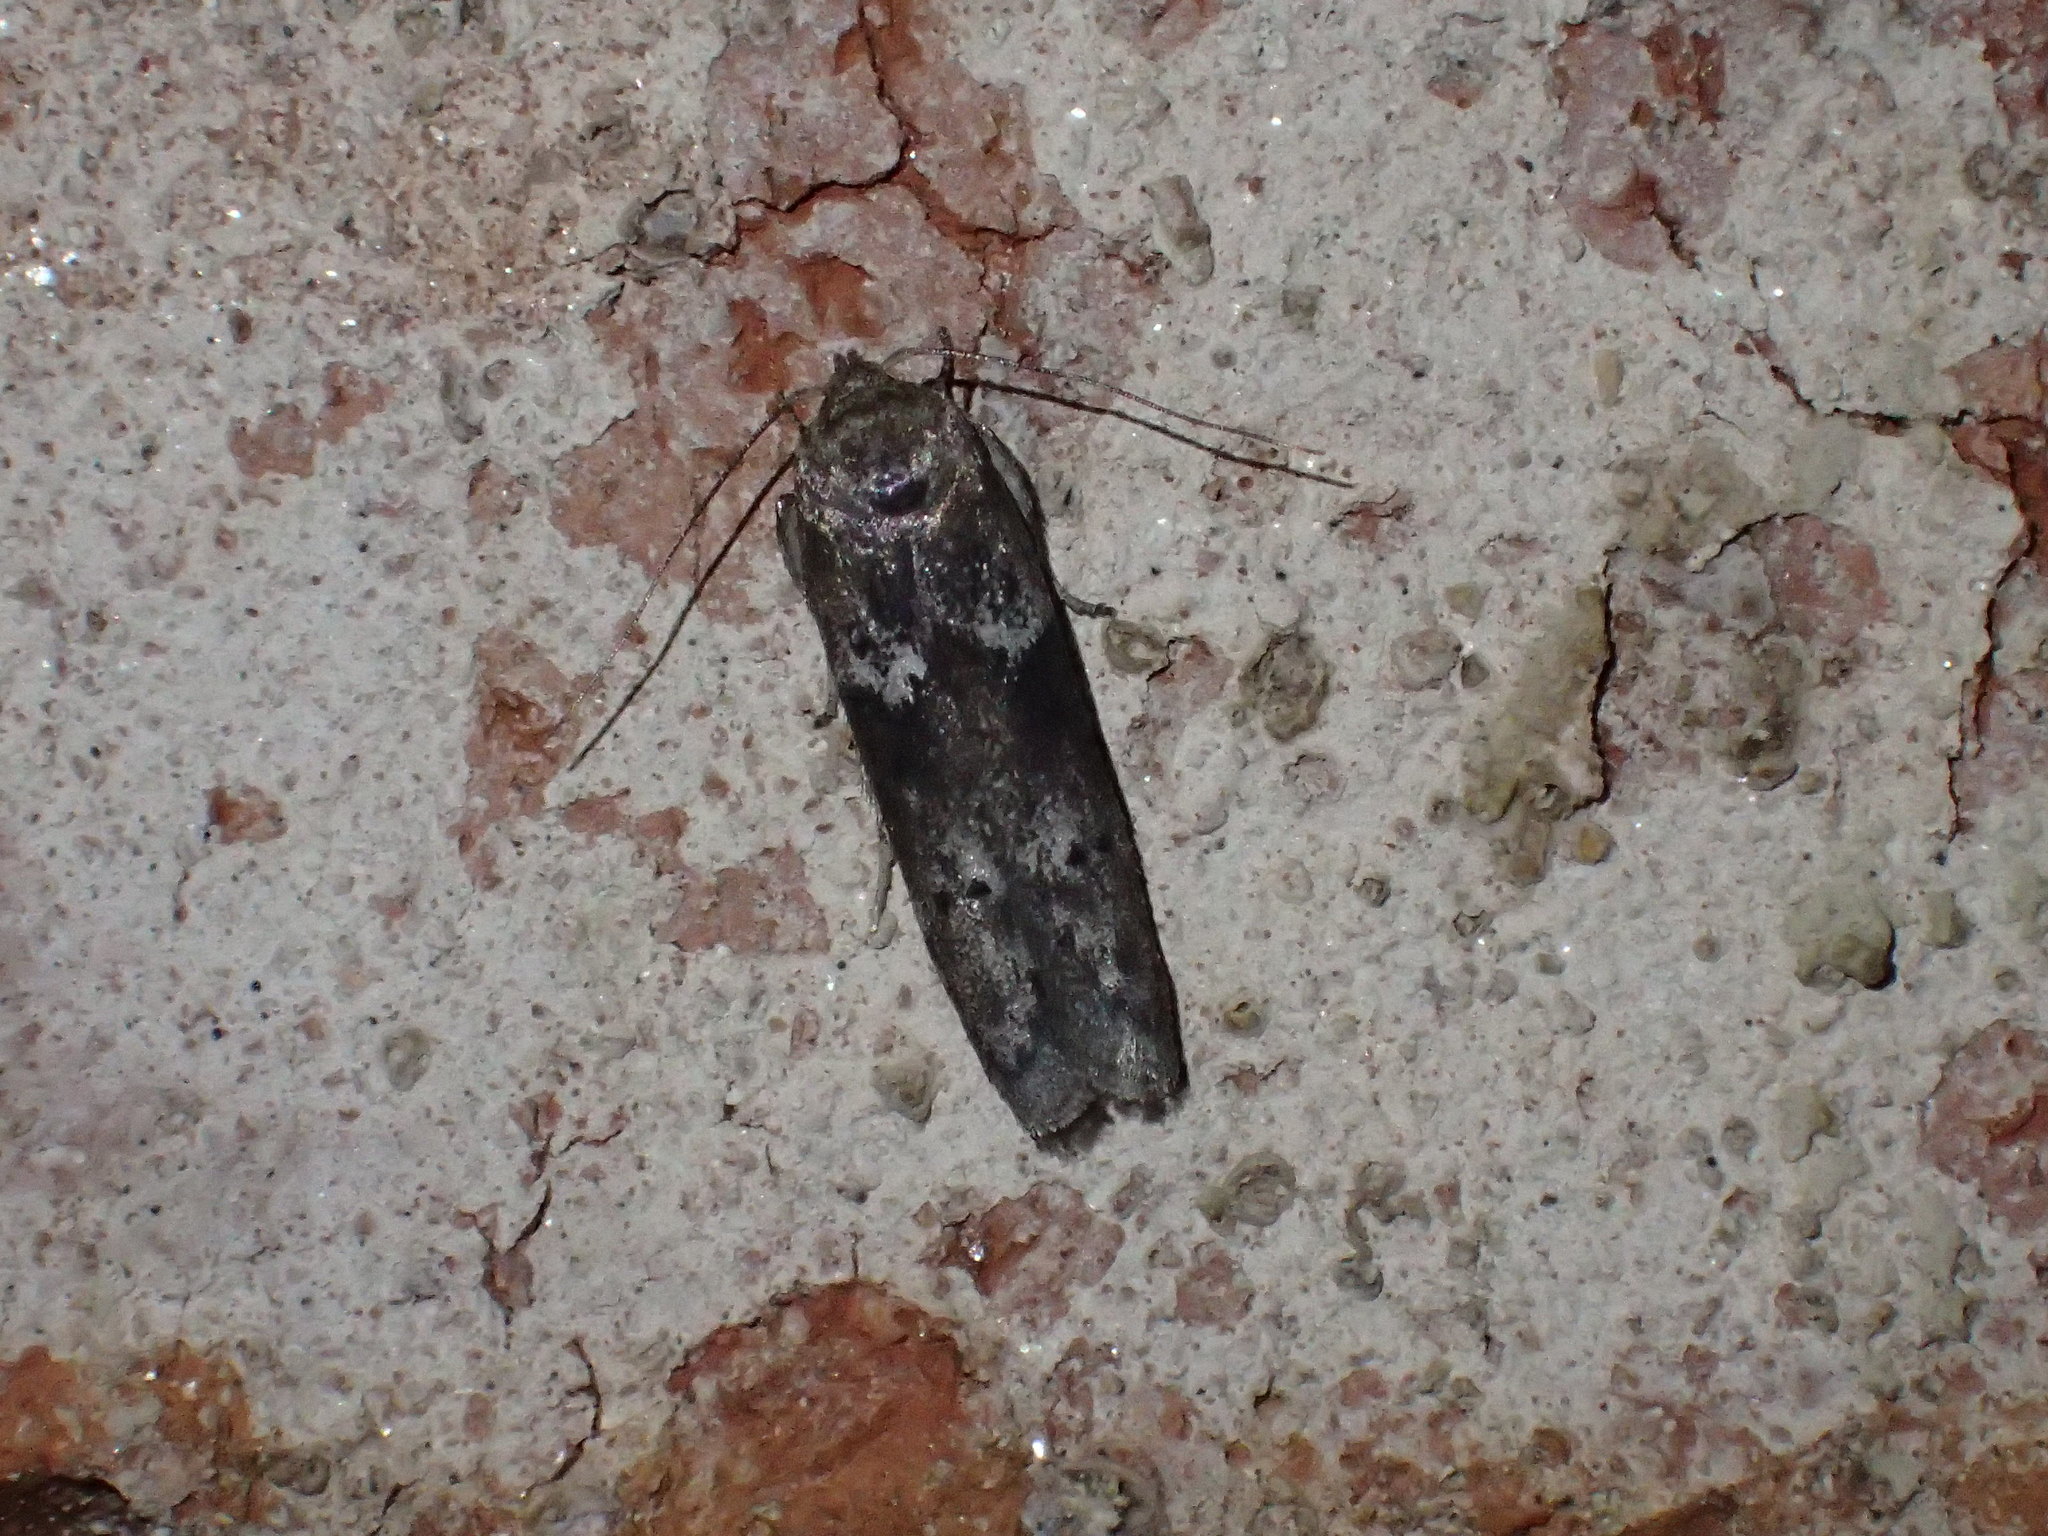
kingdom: Animalia
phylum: Arthropoda
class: Insecta
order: Lepidoptera
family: Blastobasidae
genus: Blastobasis
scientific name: Blastobasis glandulella
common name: Acorn moth
